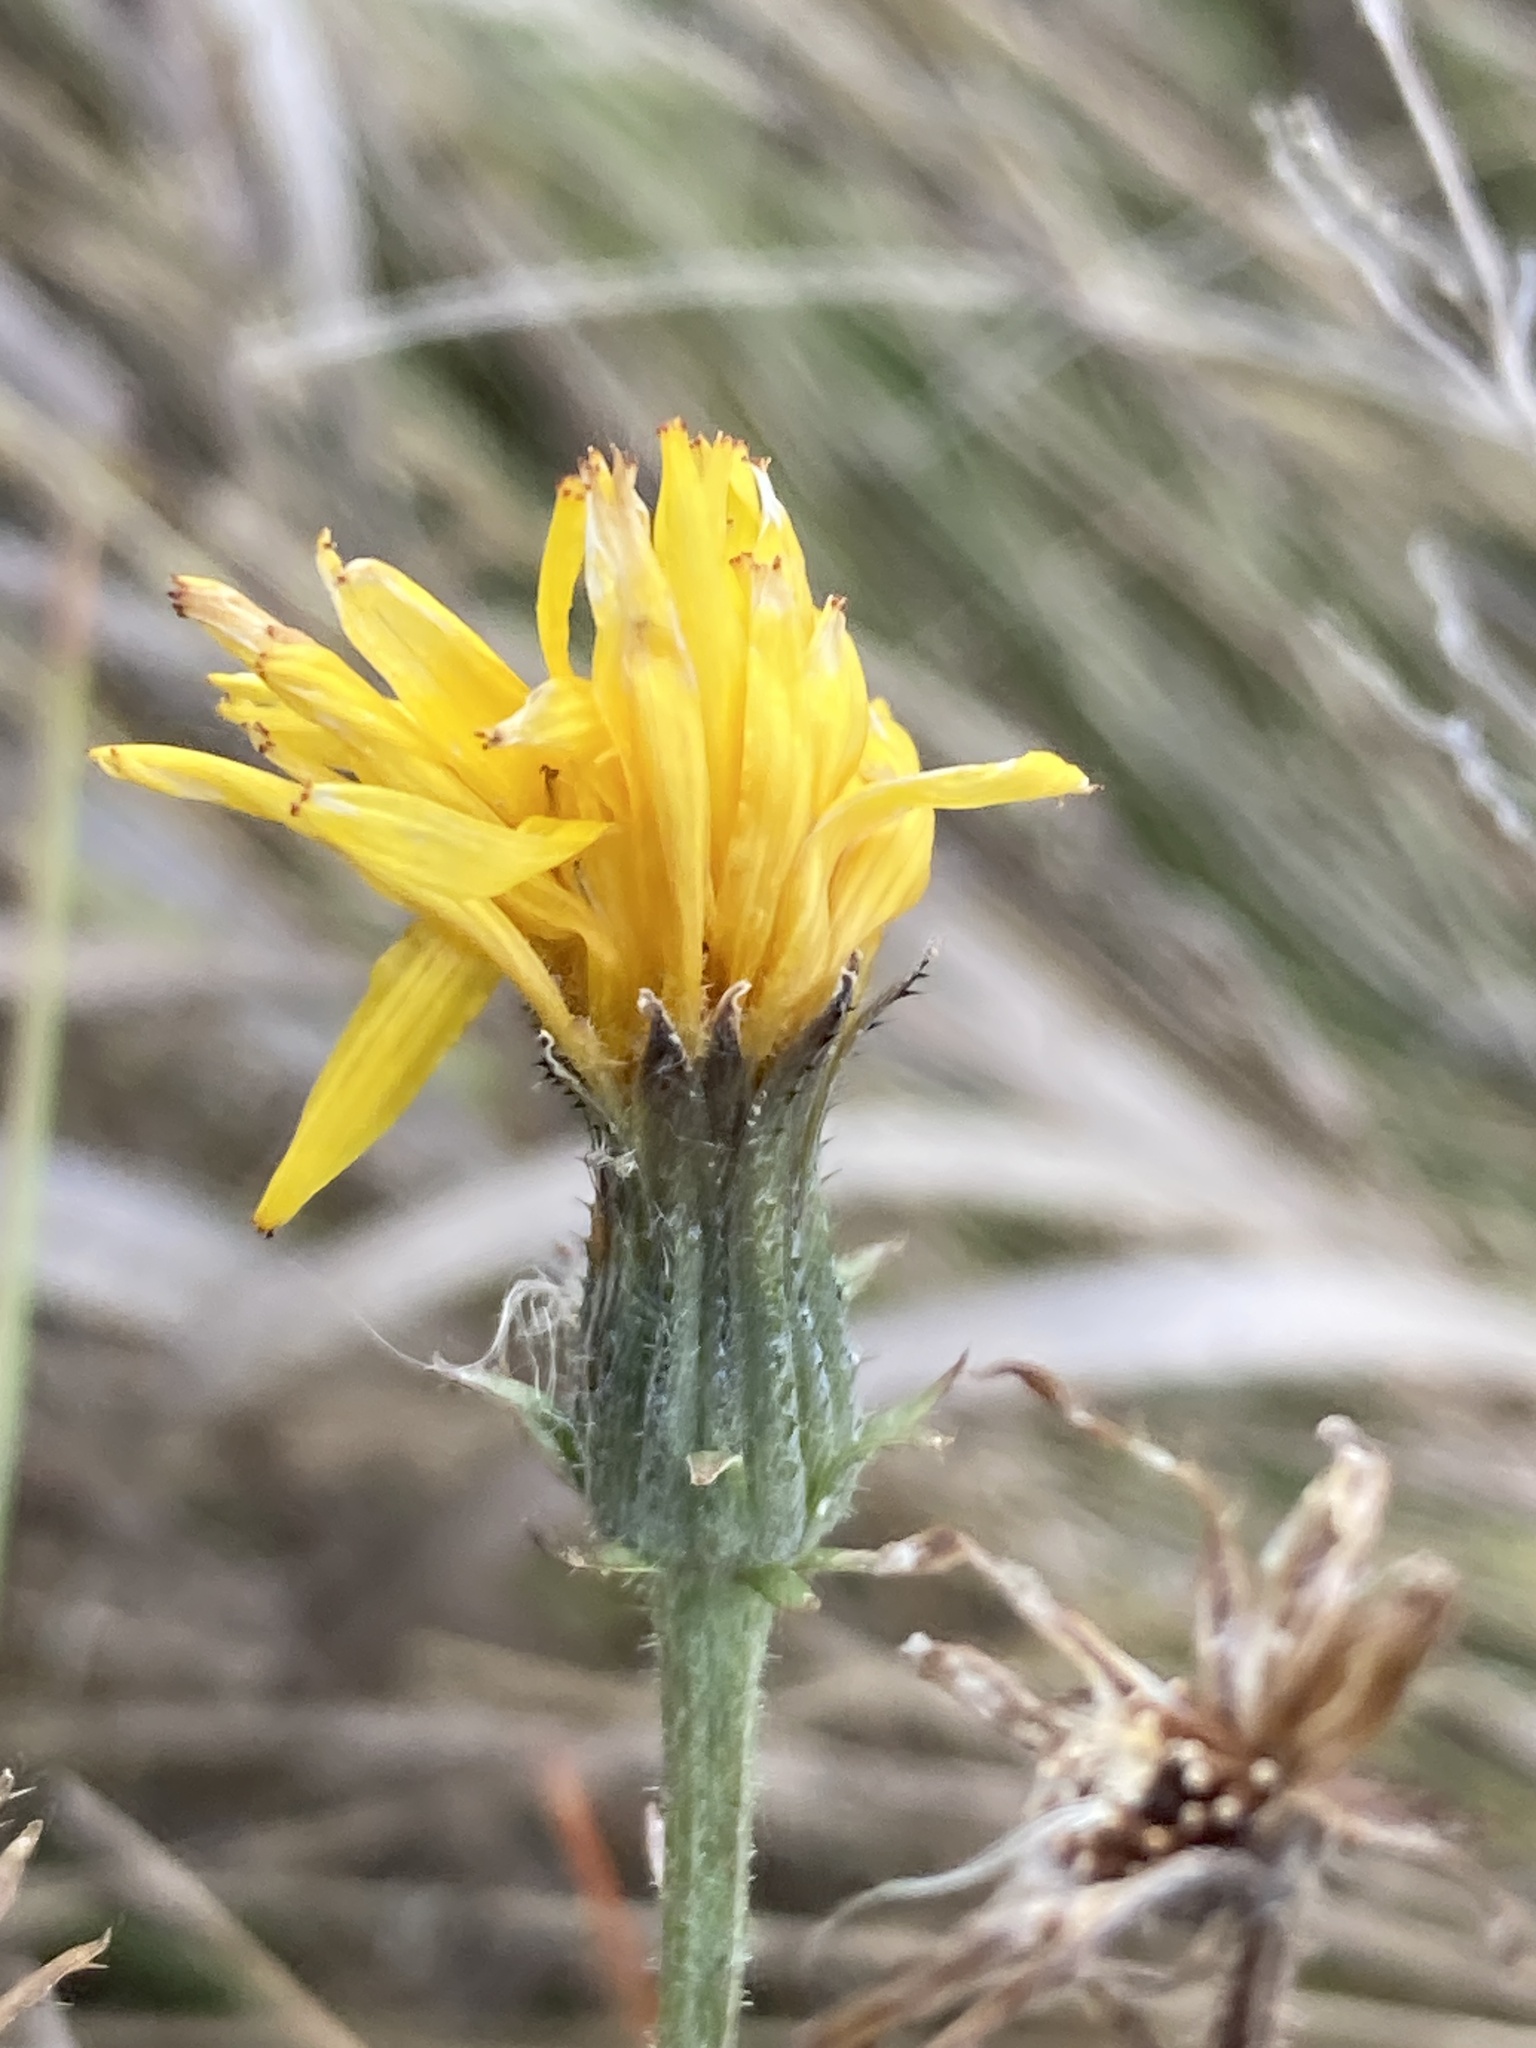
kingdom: Plantae
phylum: Tracheophyta
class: Magnoliopsida
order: Asterales
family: Asteraceae
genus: Picris
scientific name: Picris hieracioides
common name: Hawkweed oxtongue
